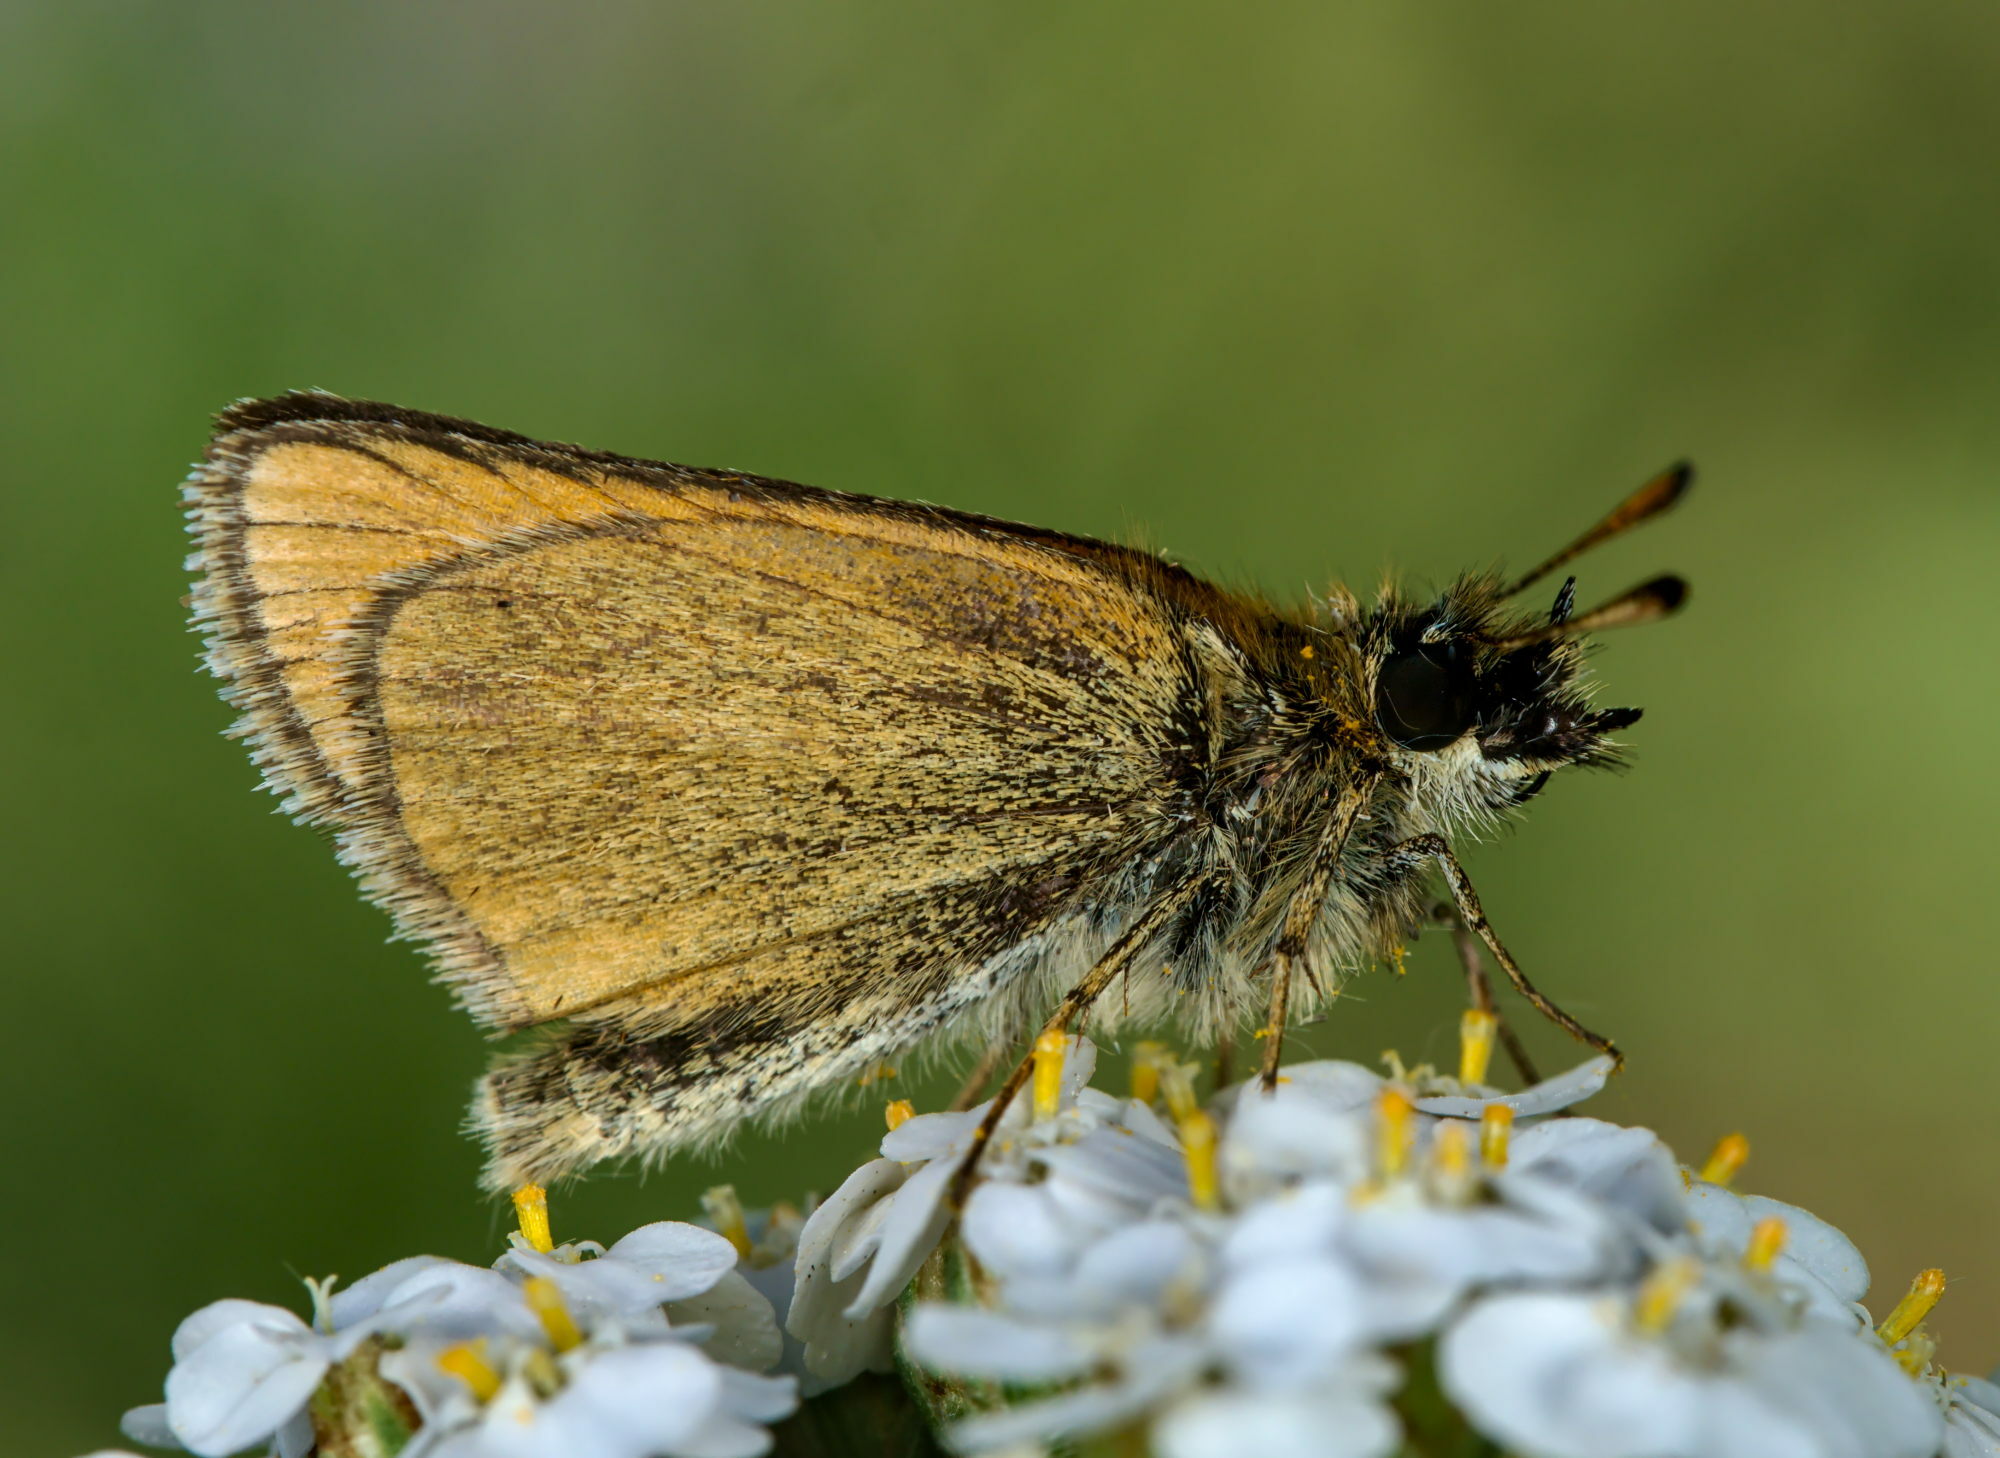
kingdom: Animalia
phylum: Arthropoda
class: Insecta
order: Lepidoptera
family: Hesperiidae
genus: Thymelicus
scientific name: Thymelicus lineola
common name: Essex skipper
